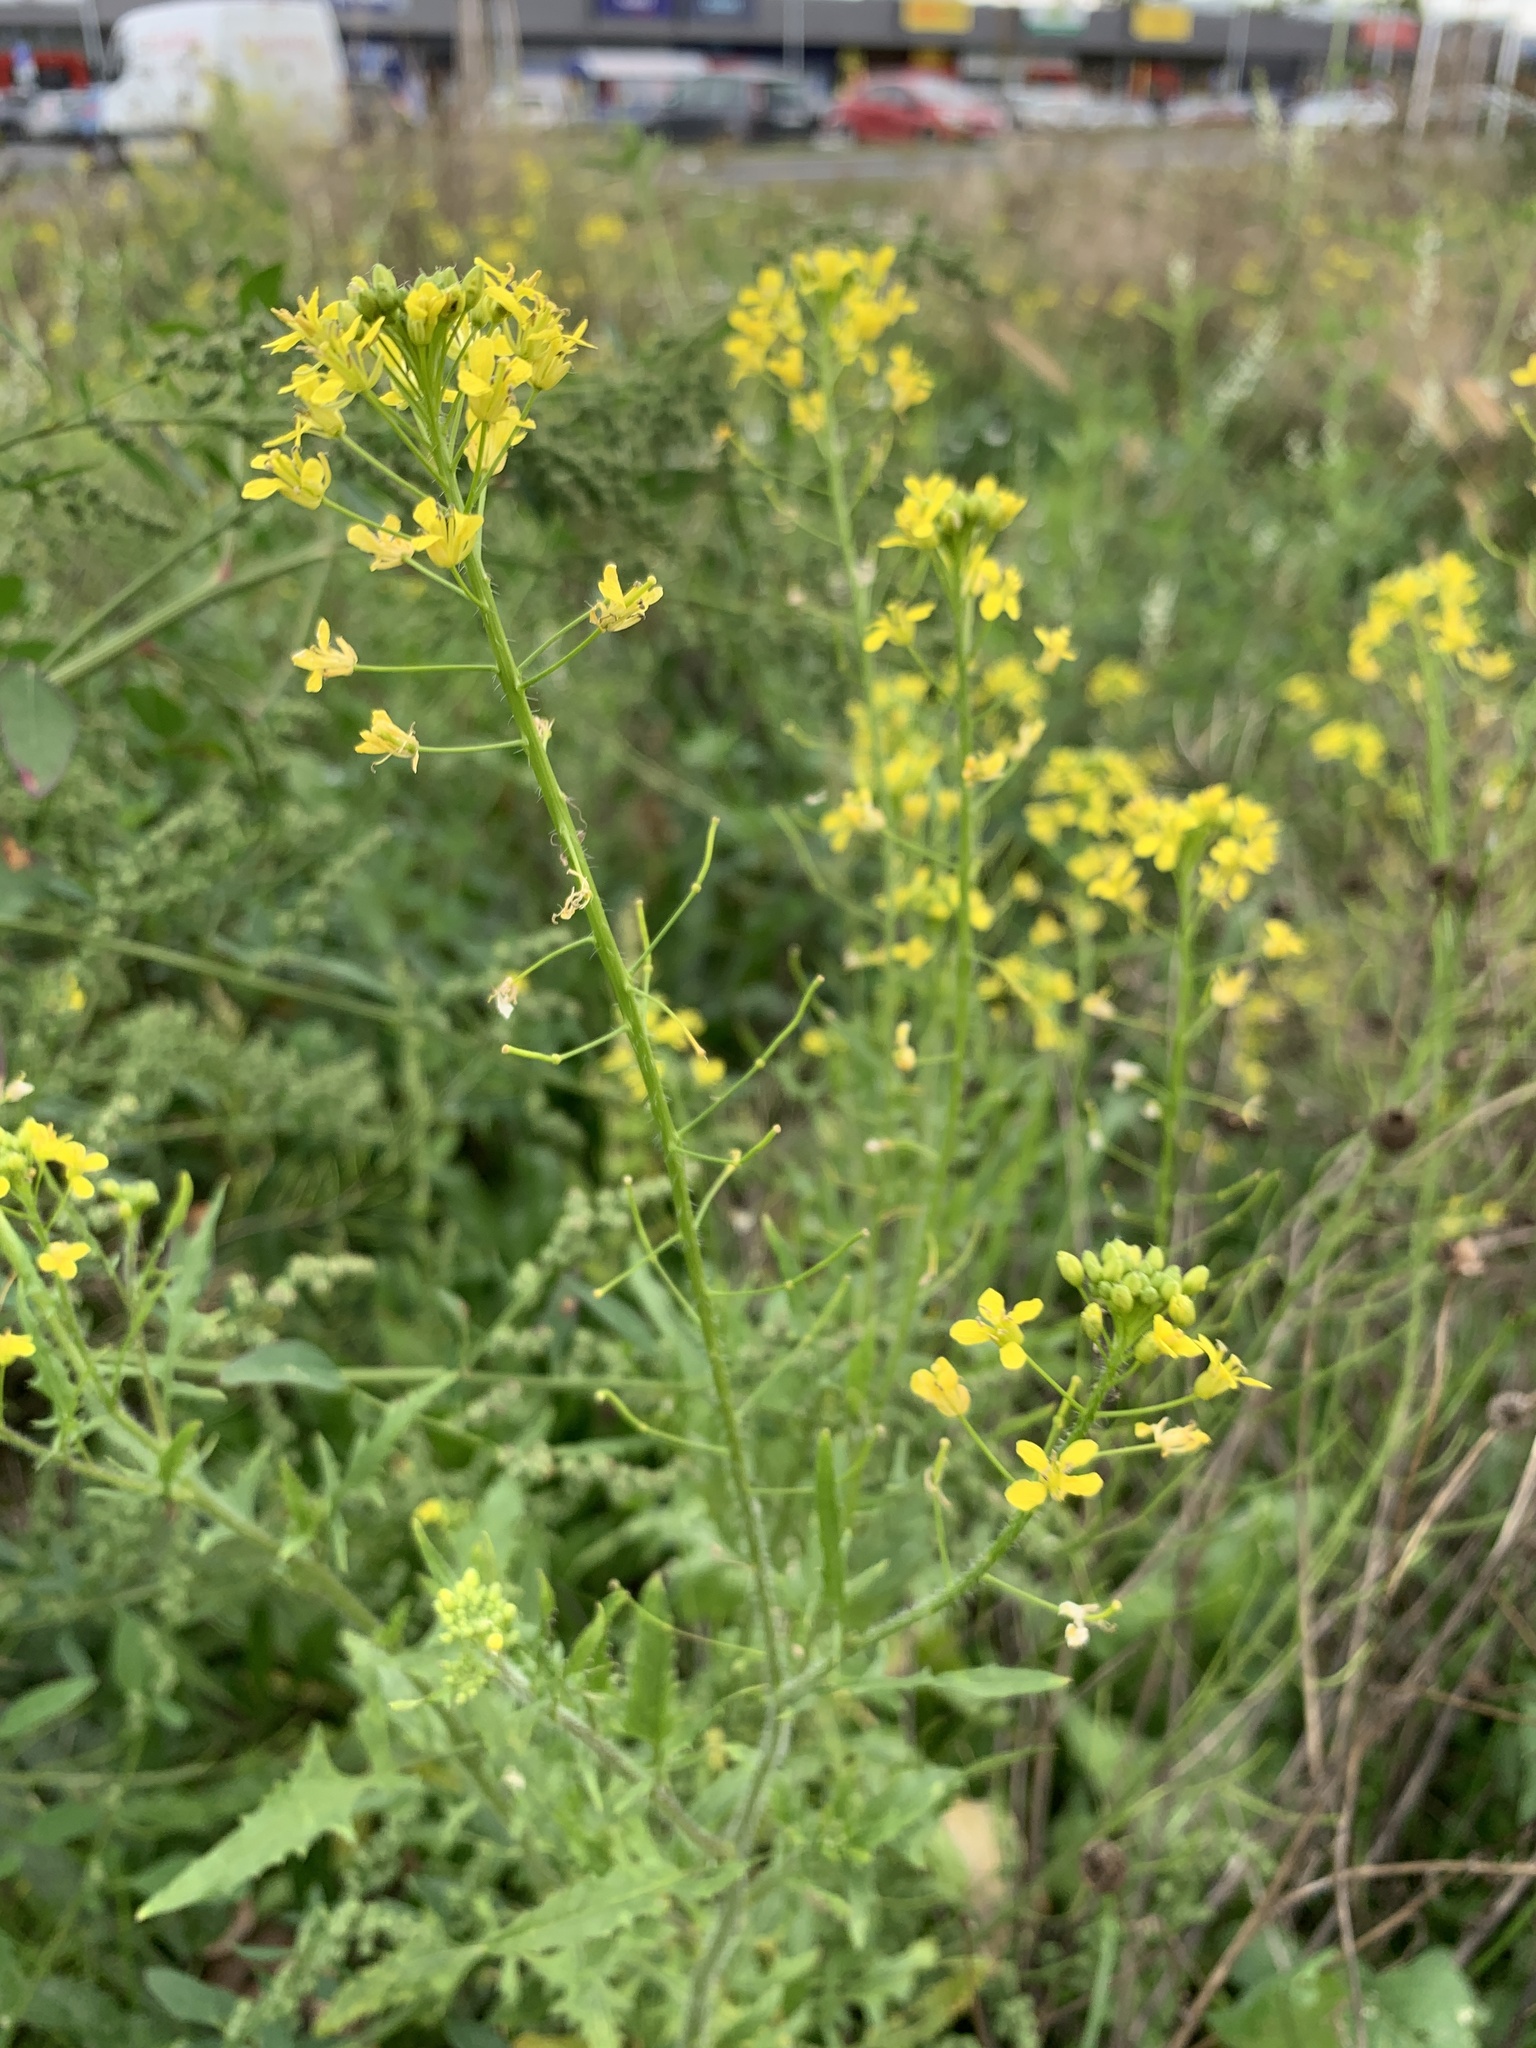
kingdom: Plantae
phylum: Tracheophyta
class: Magnoliopsida
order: Brassicales
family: Brassicaceae
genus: Sisymbrium
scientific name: Sisymbrium loeselii
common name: False london-rocket
